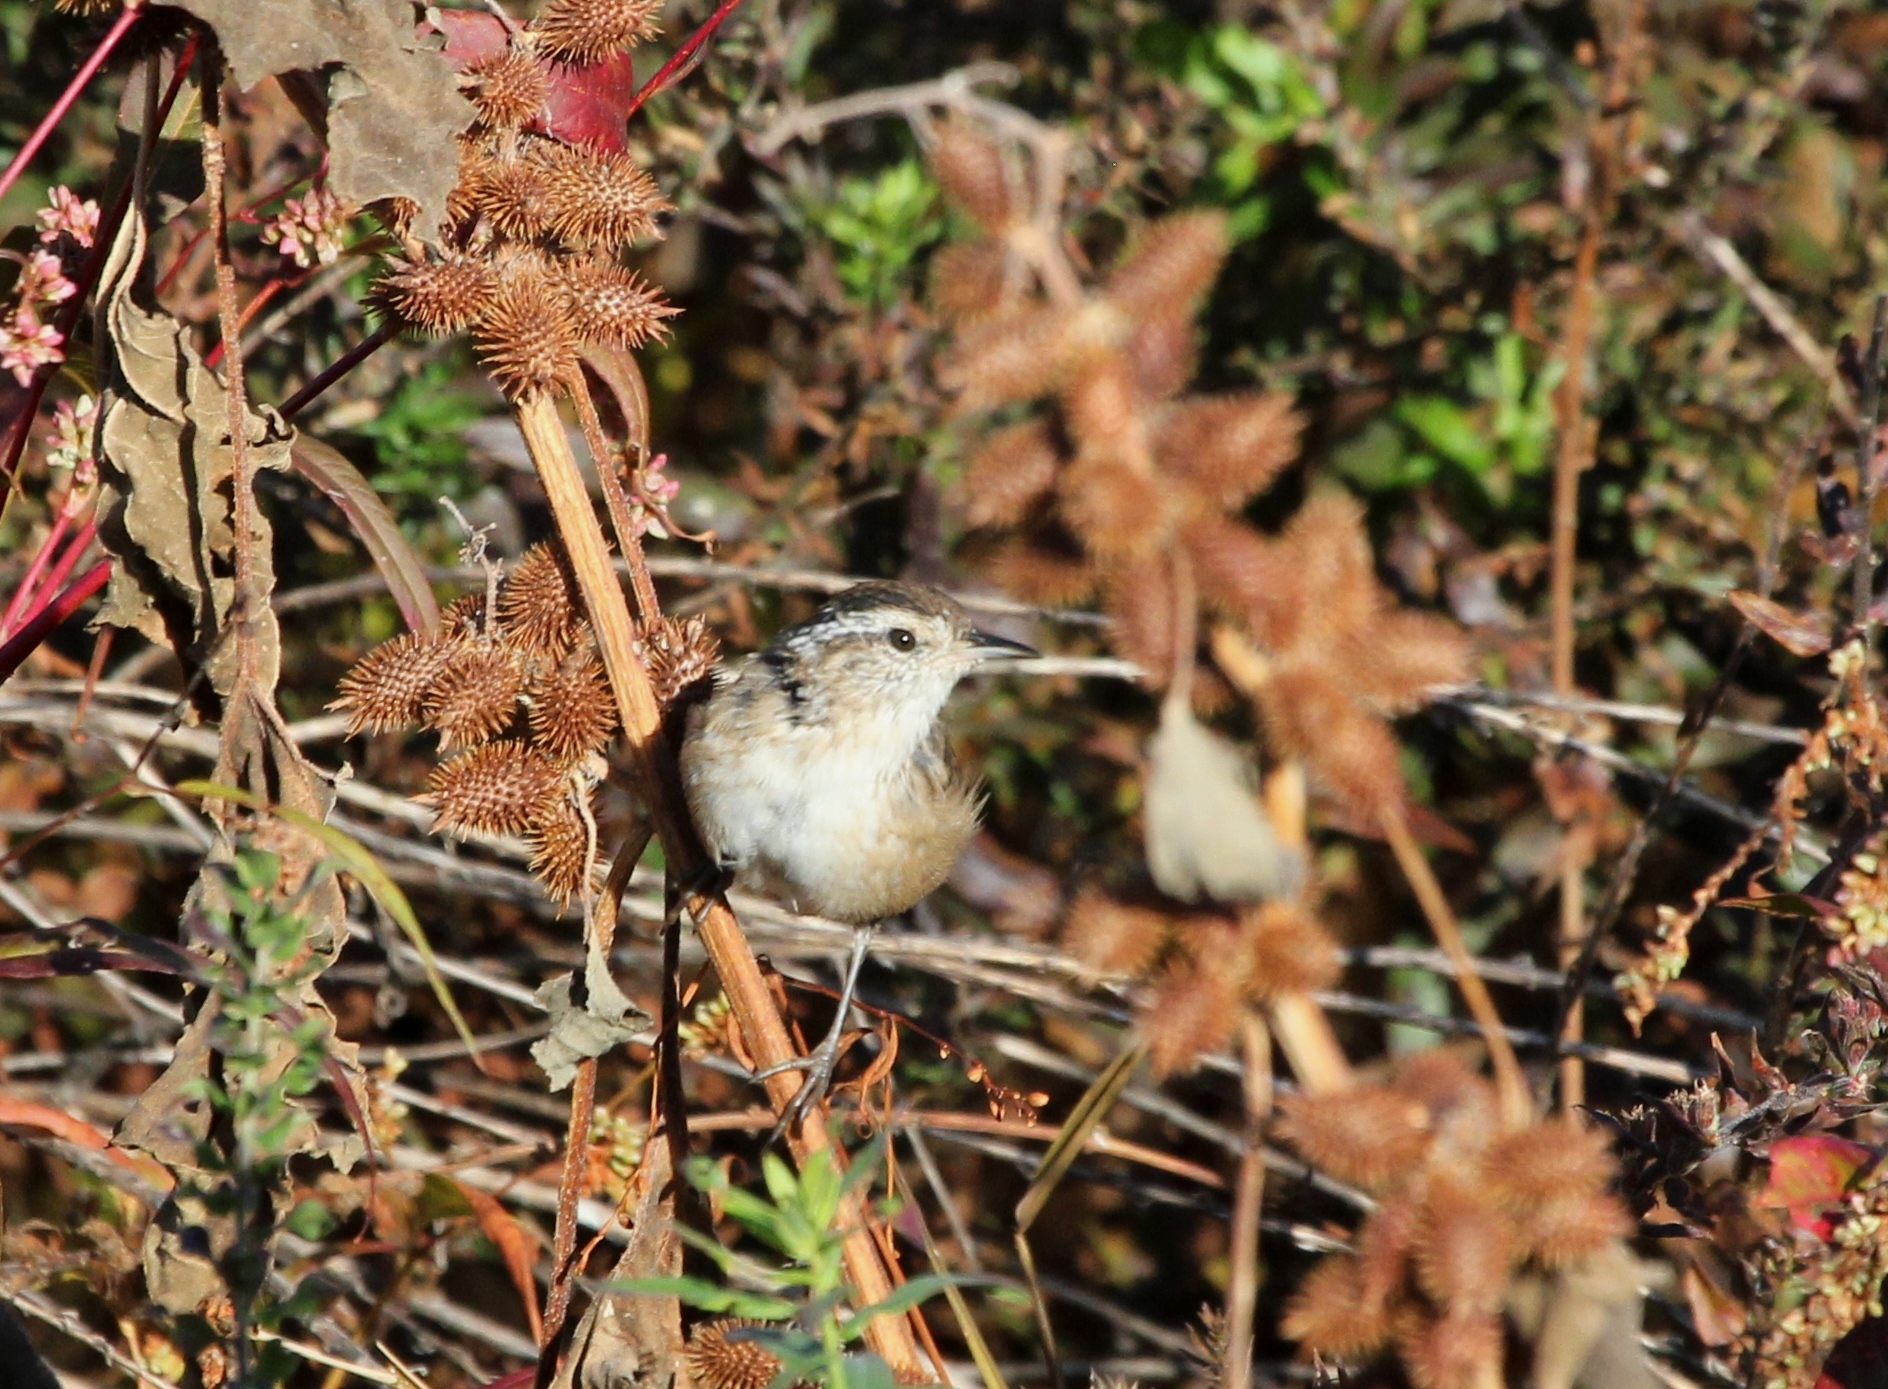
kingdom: Animalia
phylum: Chordata
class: Aves
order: Passeriformes
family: Troglodytidae
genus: Cistothorus
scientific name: Cistothorus palustris
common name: Marsh wren
